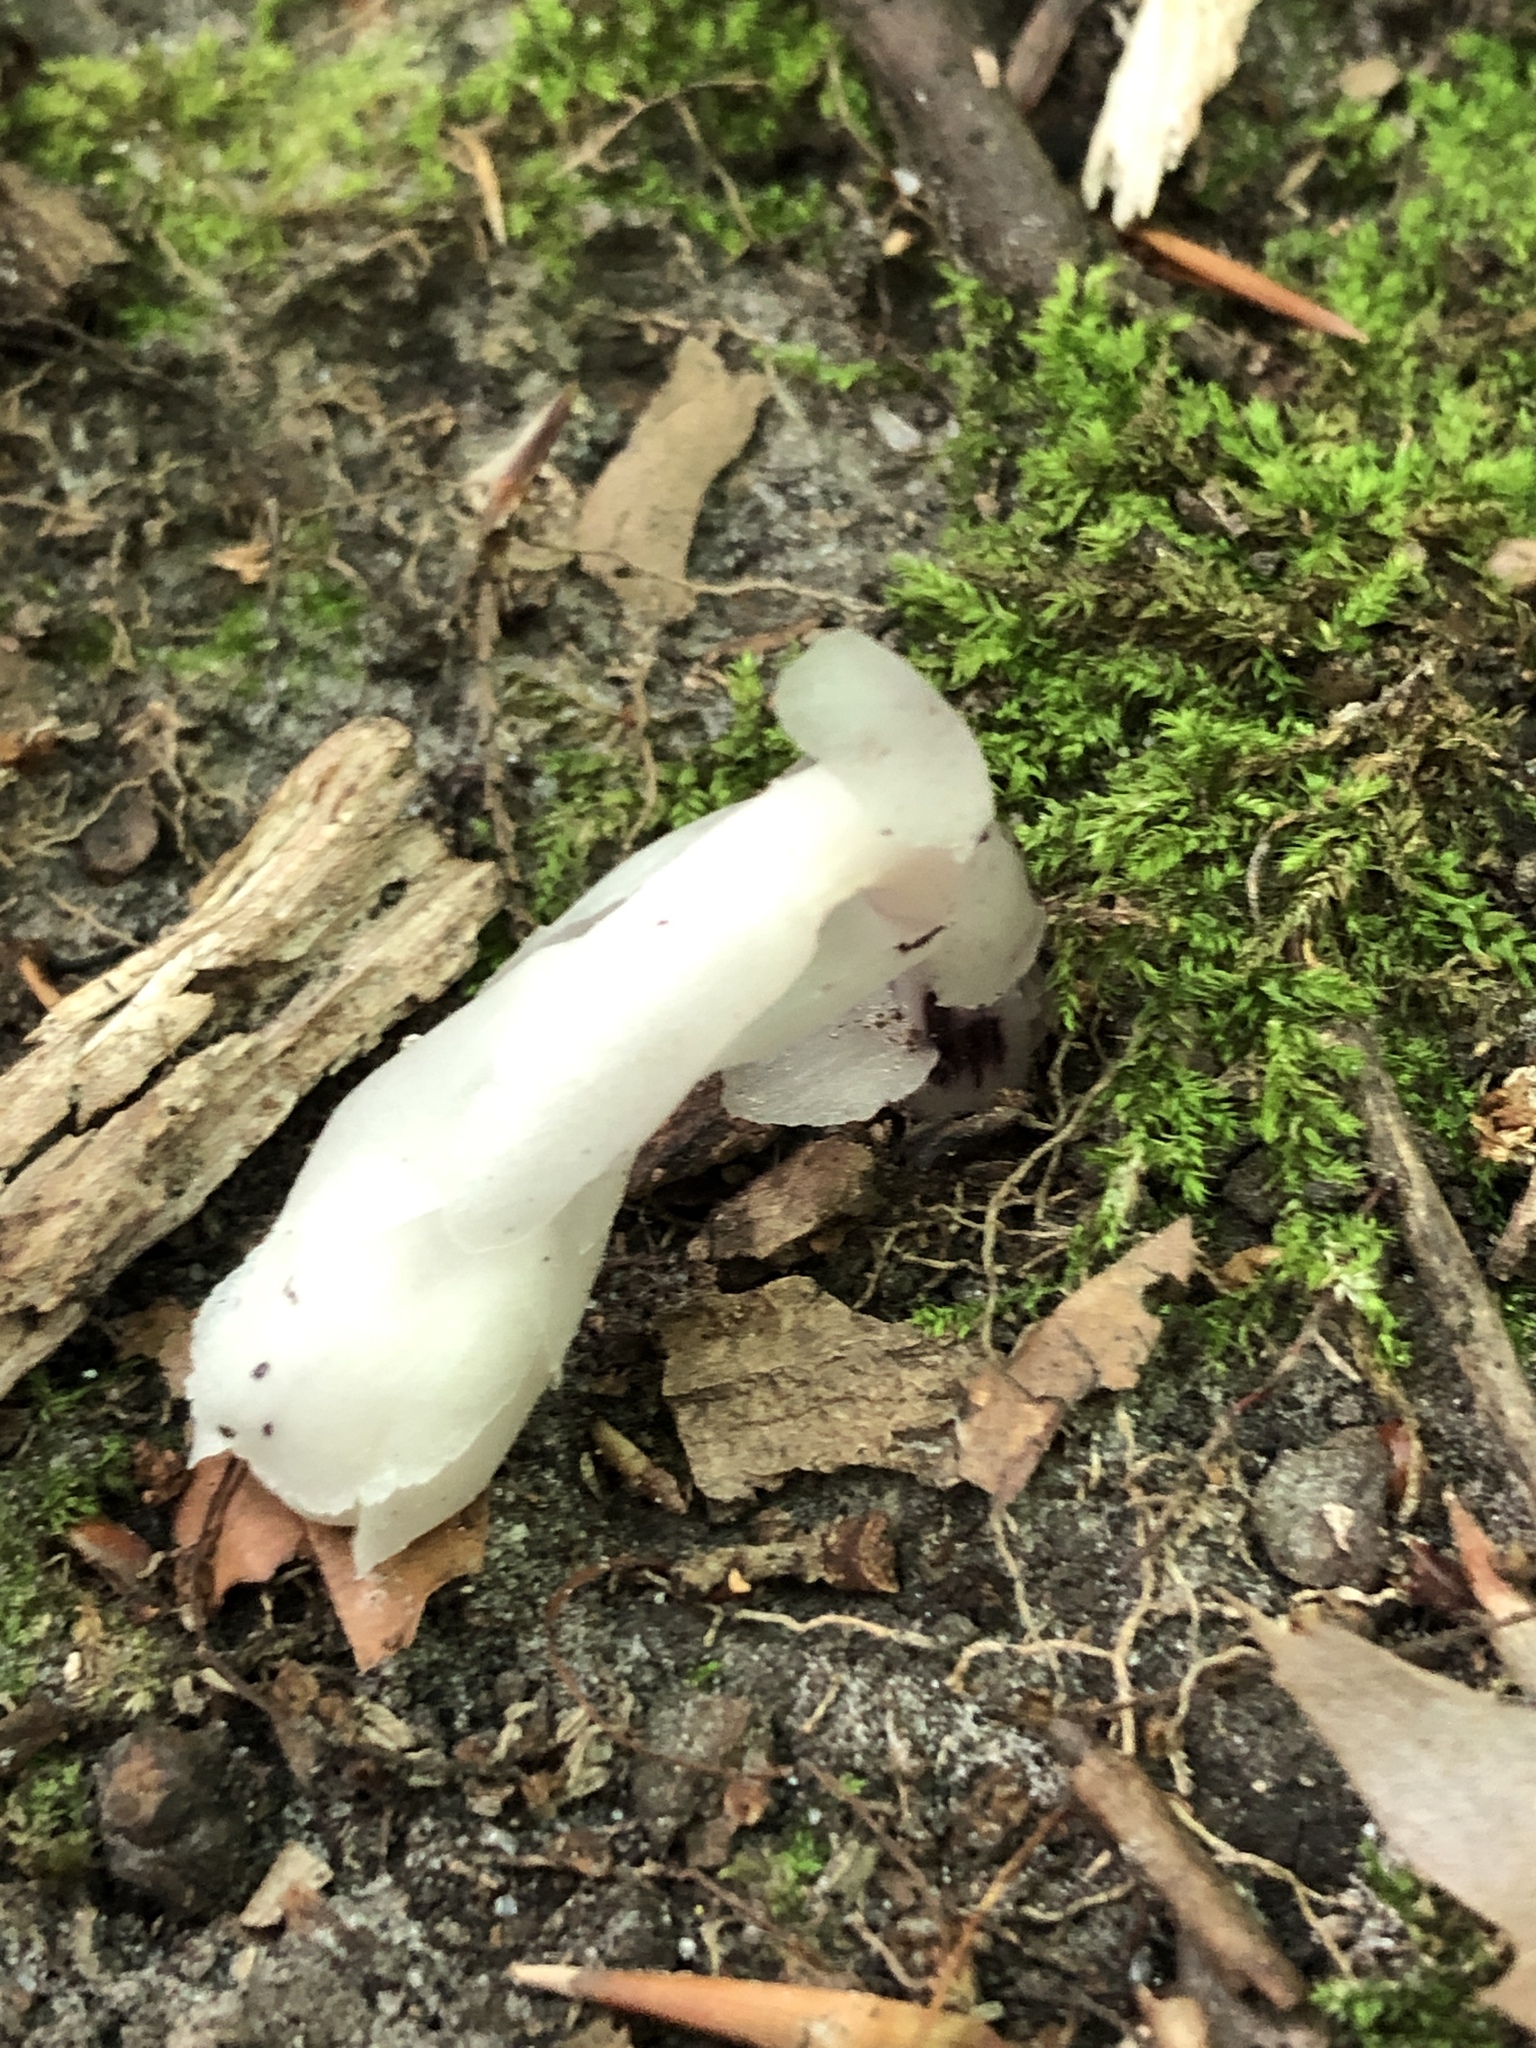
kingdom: Plantae
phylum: Tracheophyta
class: Magnoliopsida
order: Ericales
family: Ericaceae
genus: Monotropa
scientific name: Monotropa uniflora
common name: Convulsion root
